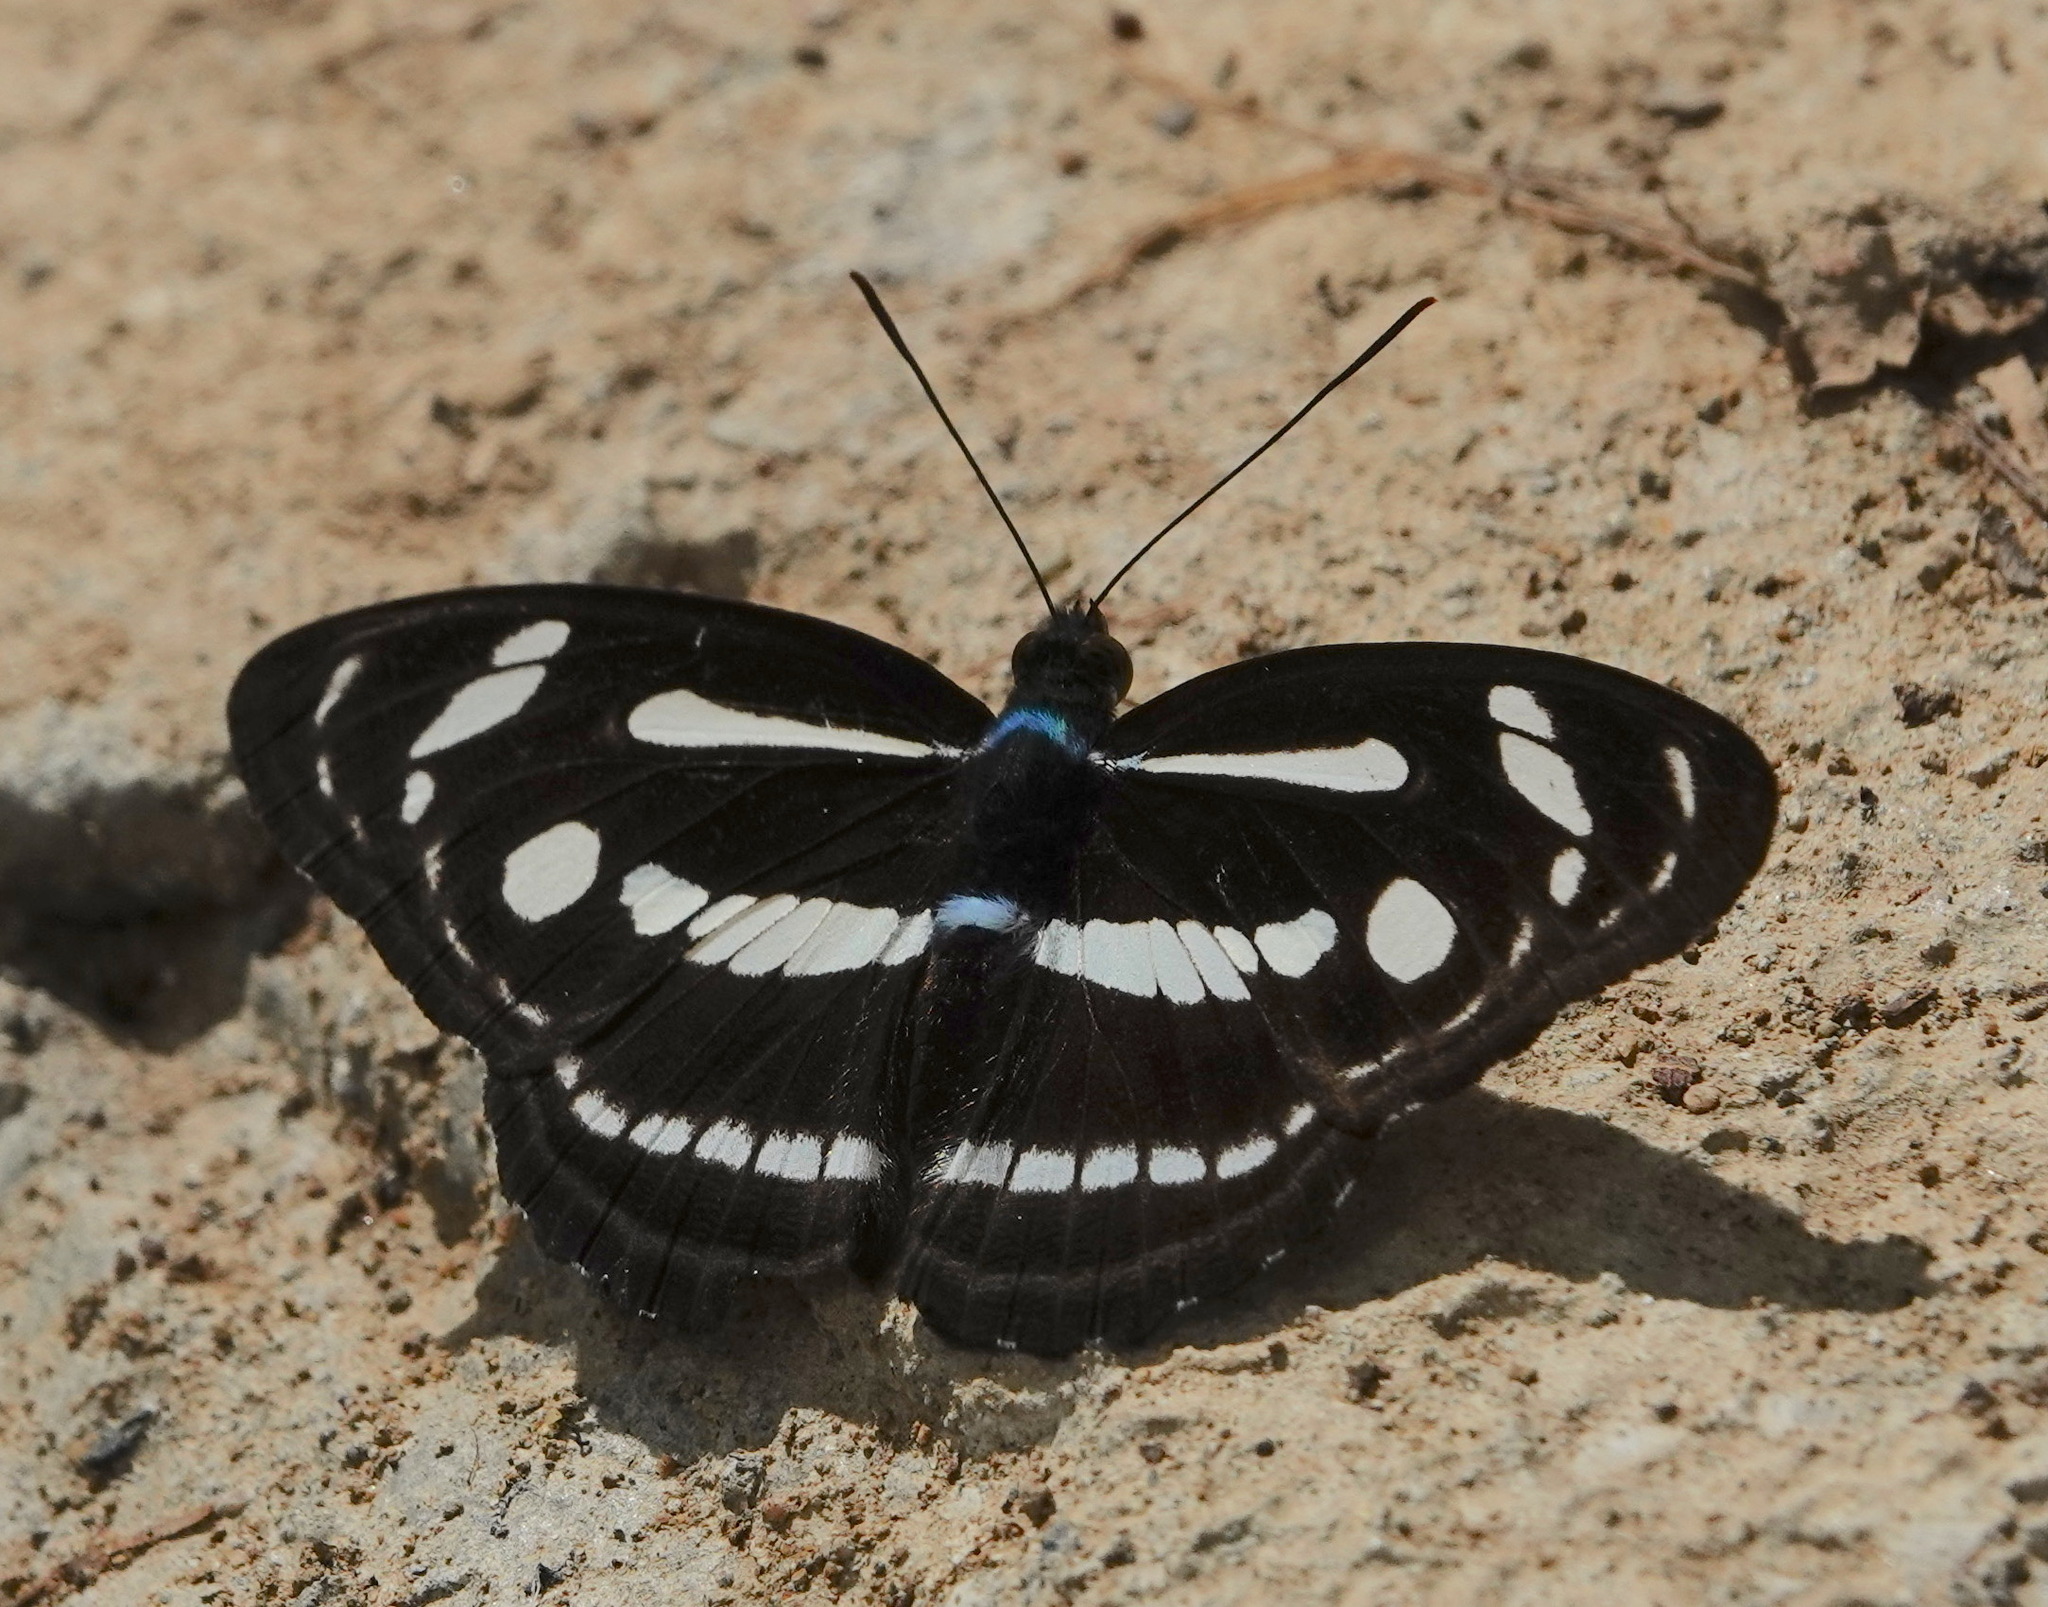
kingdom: Animalia
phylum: Arthropoda
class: Insecta
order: Lepidoptera
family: Nymphalidae
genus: Parathyma
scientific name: Parathyma pravara
